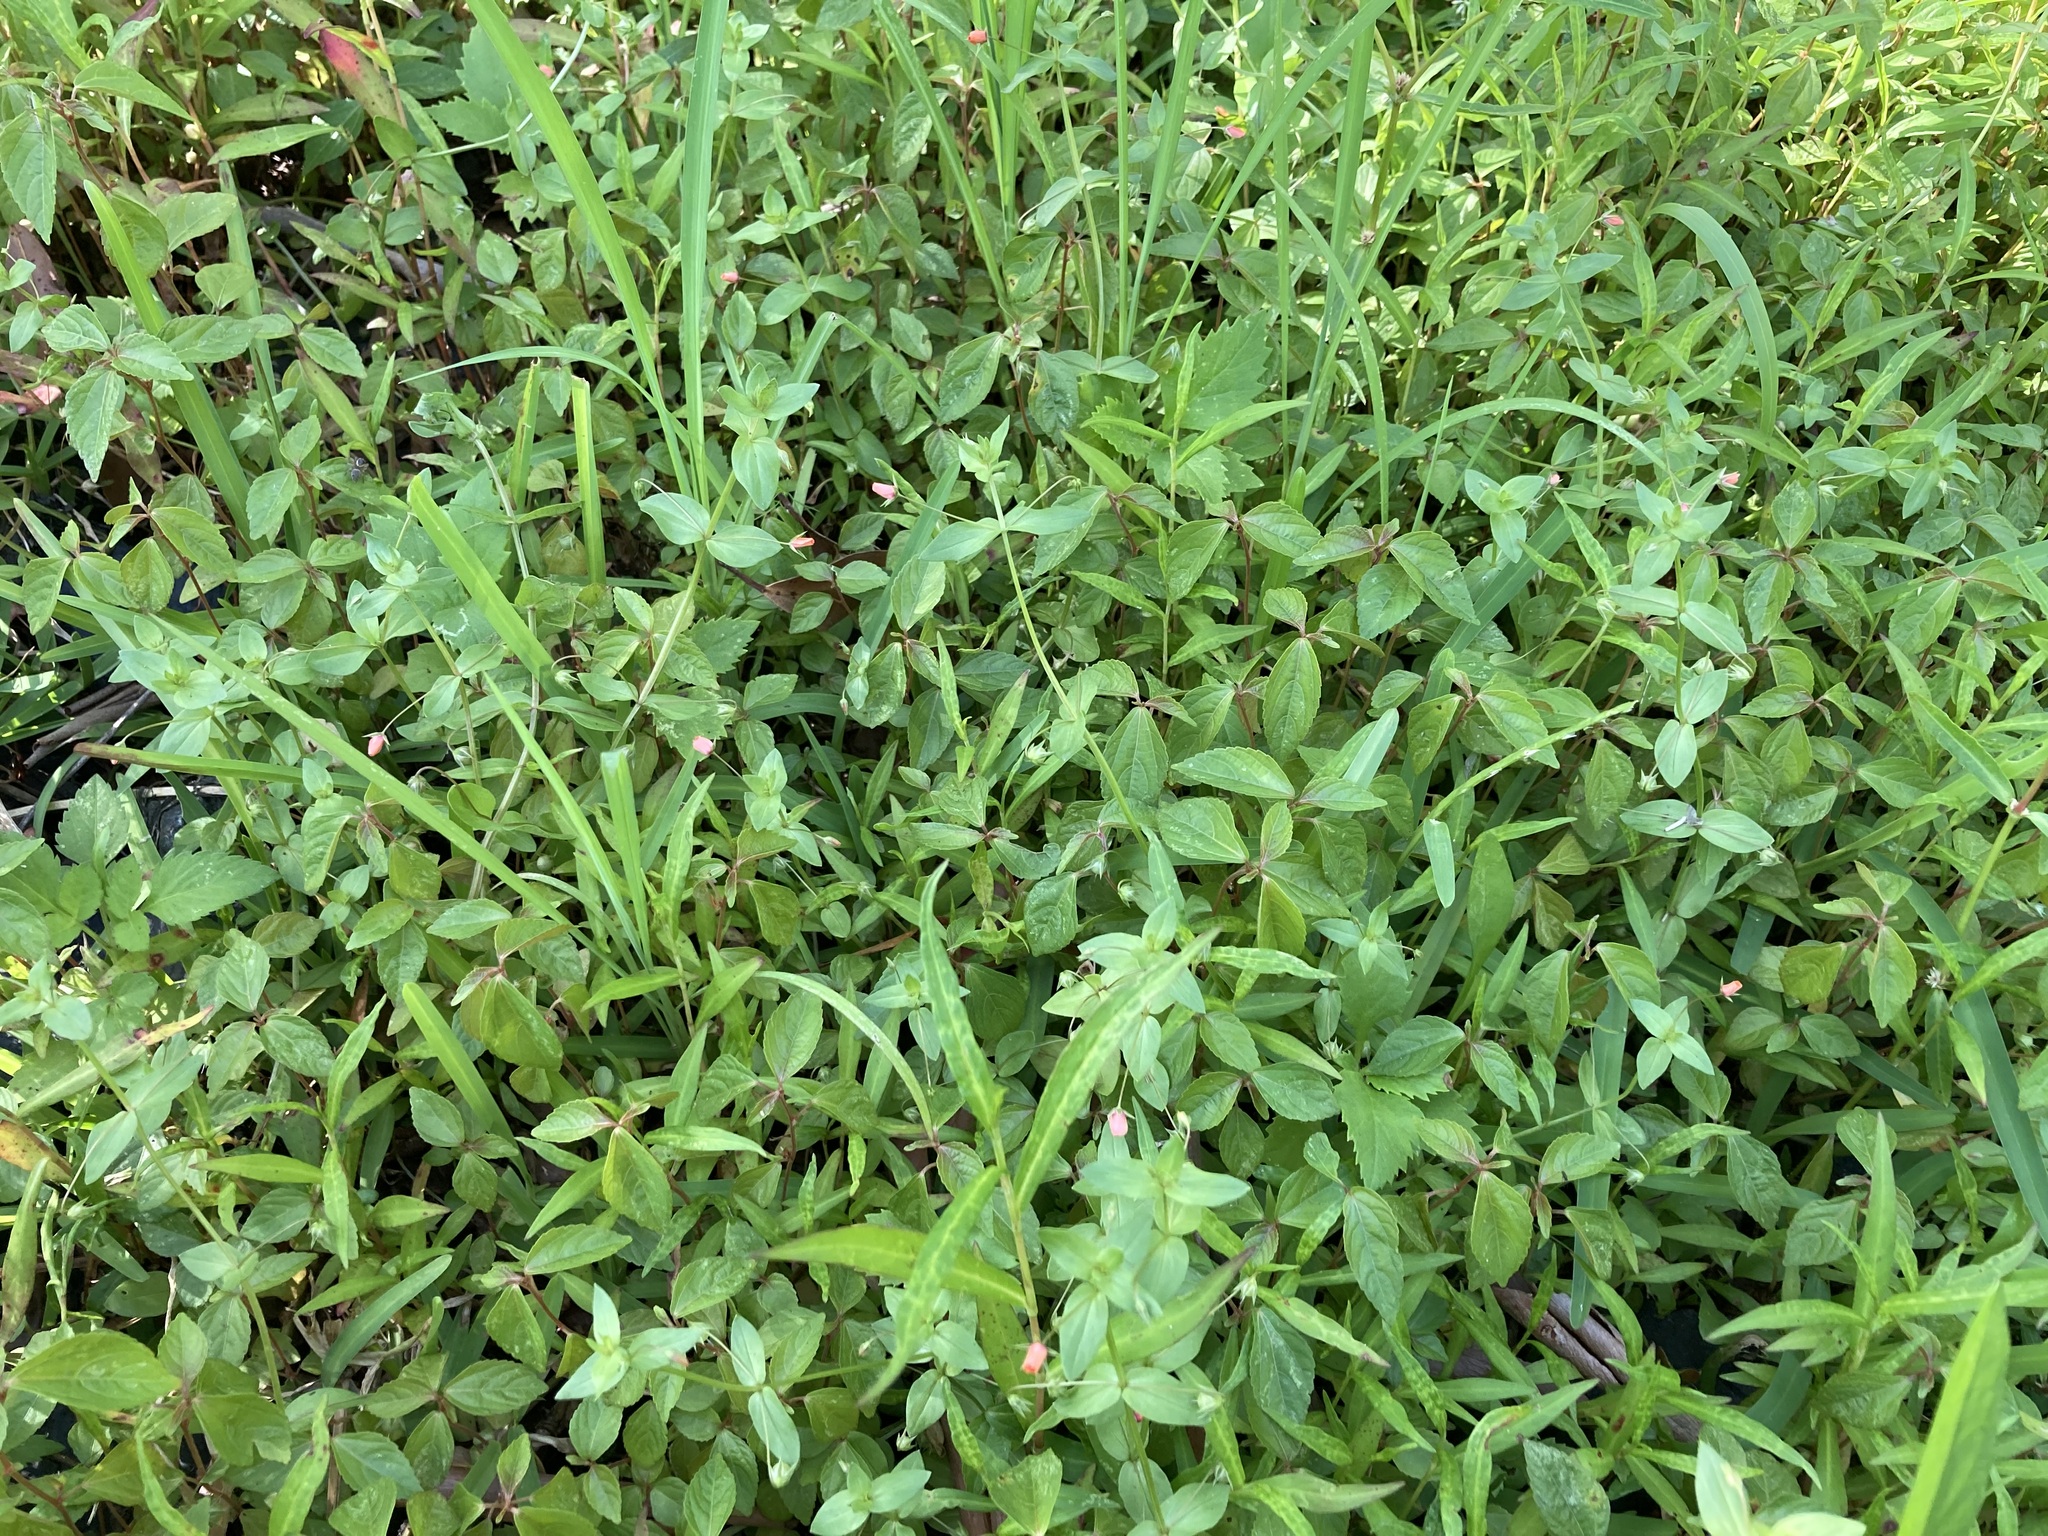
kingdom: Plantae
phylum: Tracheophyta
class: Magnoliopsida
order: Malpighiales
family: Euphorbiaceae
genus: Acalypha
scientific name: Acalypha australis
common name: Asian copperleaf
